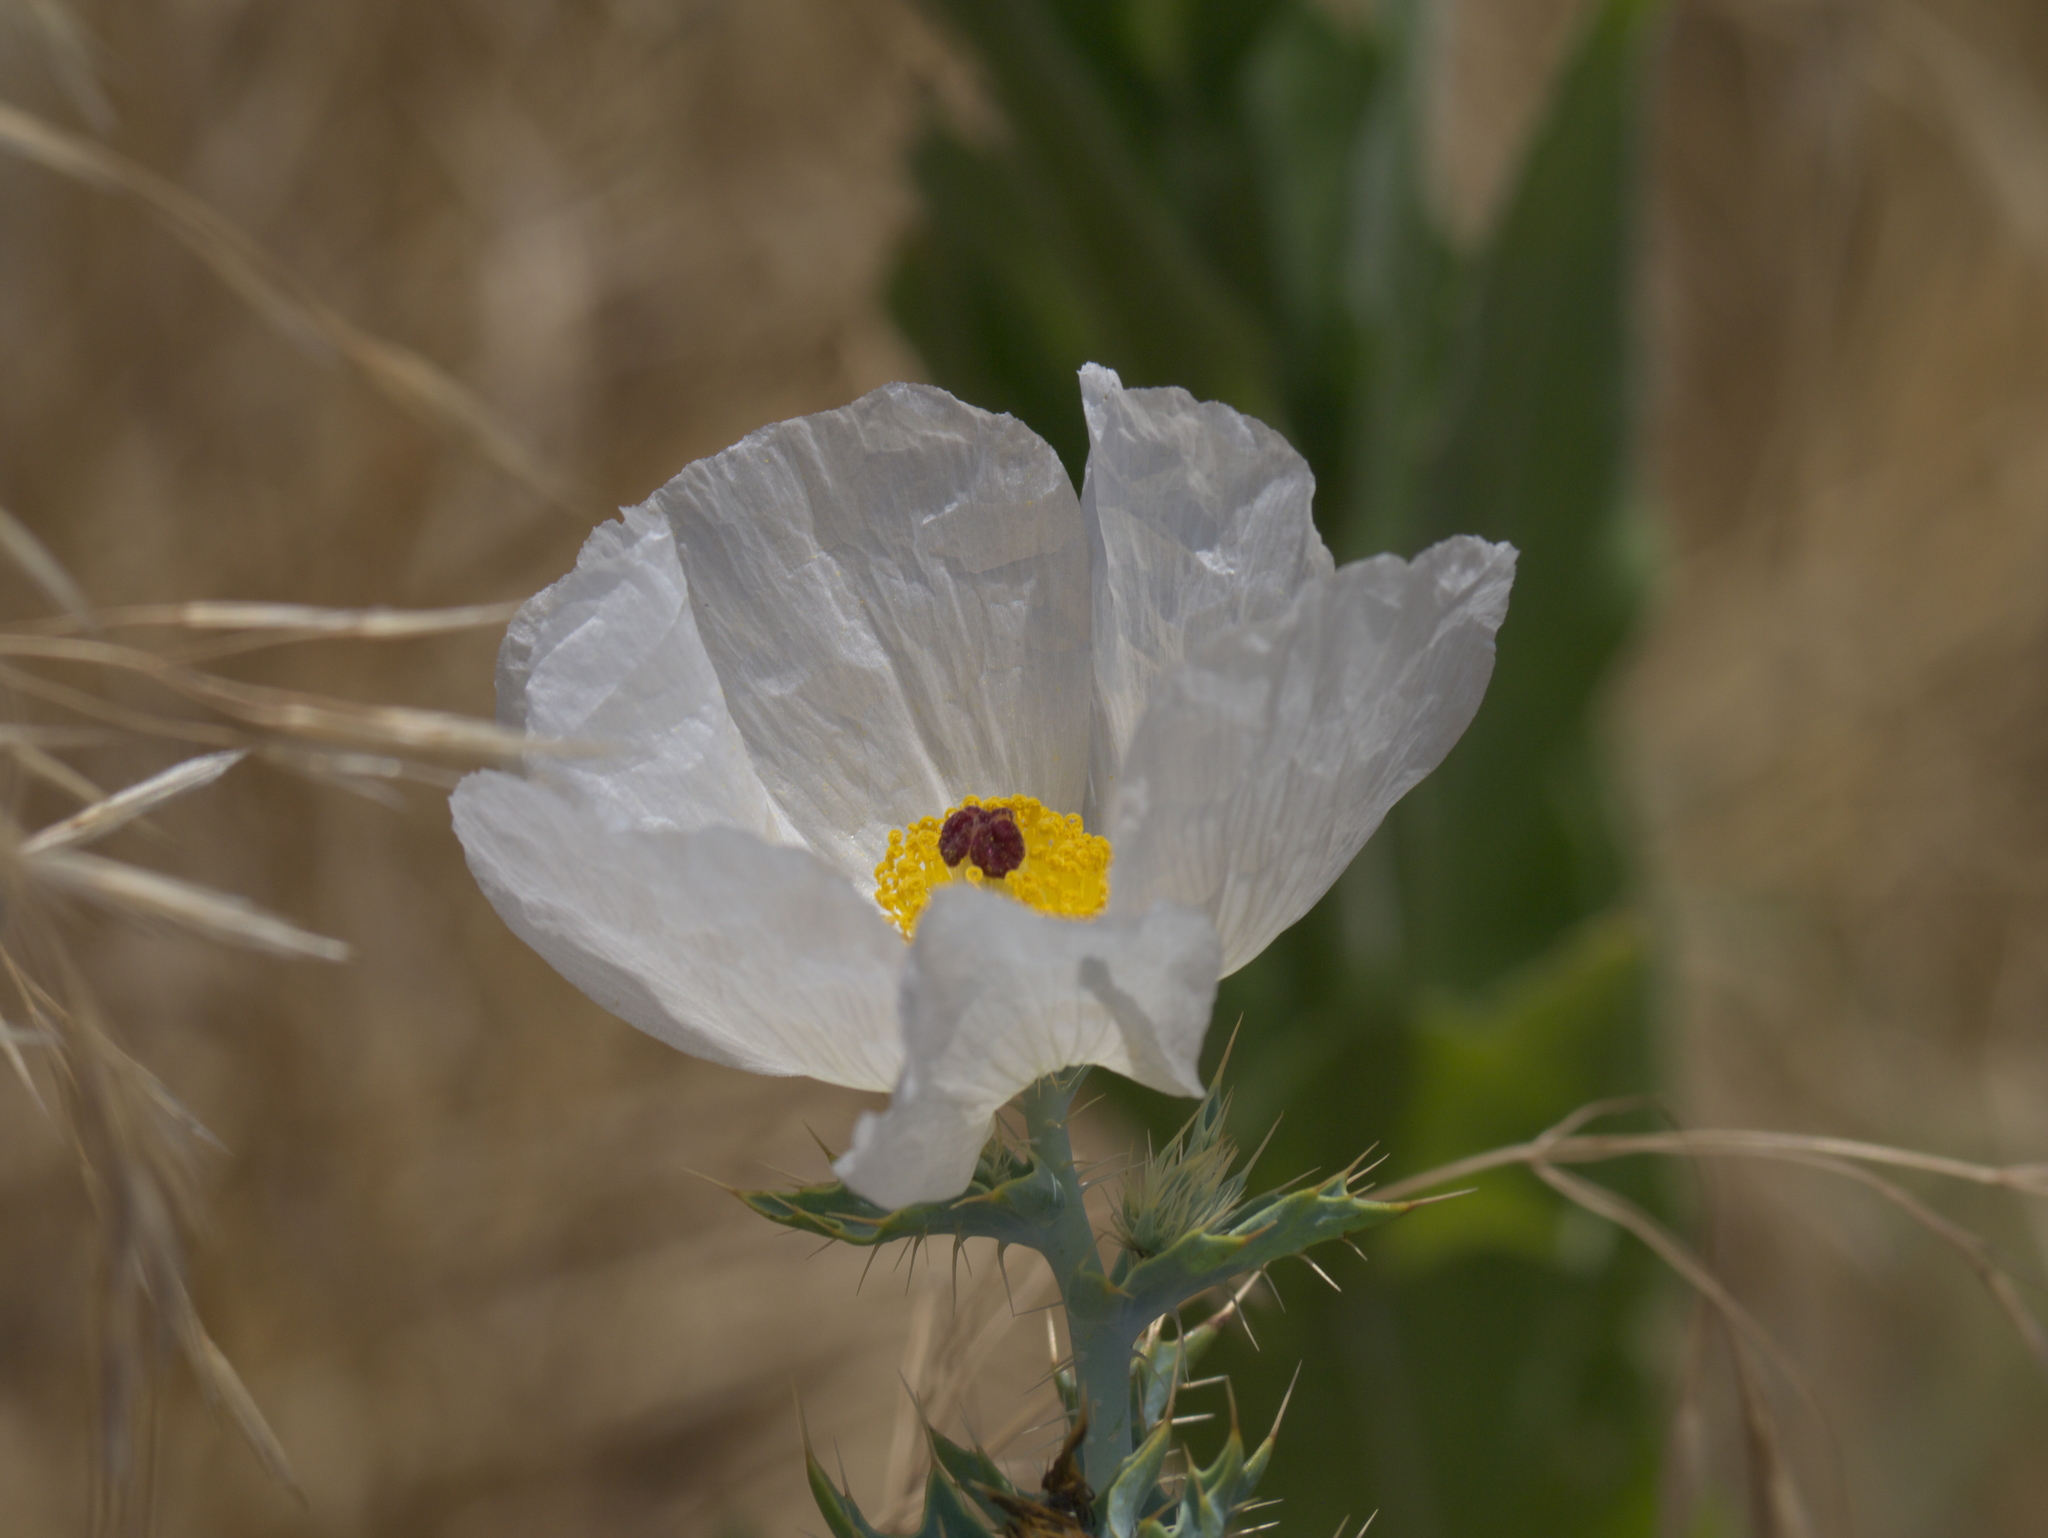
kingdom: Plantae
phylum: Tracheophyta
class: Magnoliopsida
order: Ranunculales
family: Papaveraceae
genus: Argemone
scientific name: Argemone polyanthemos
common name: Plains prickly-poppy
